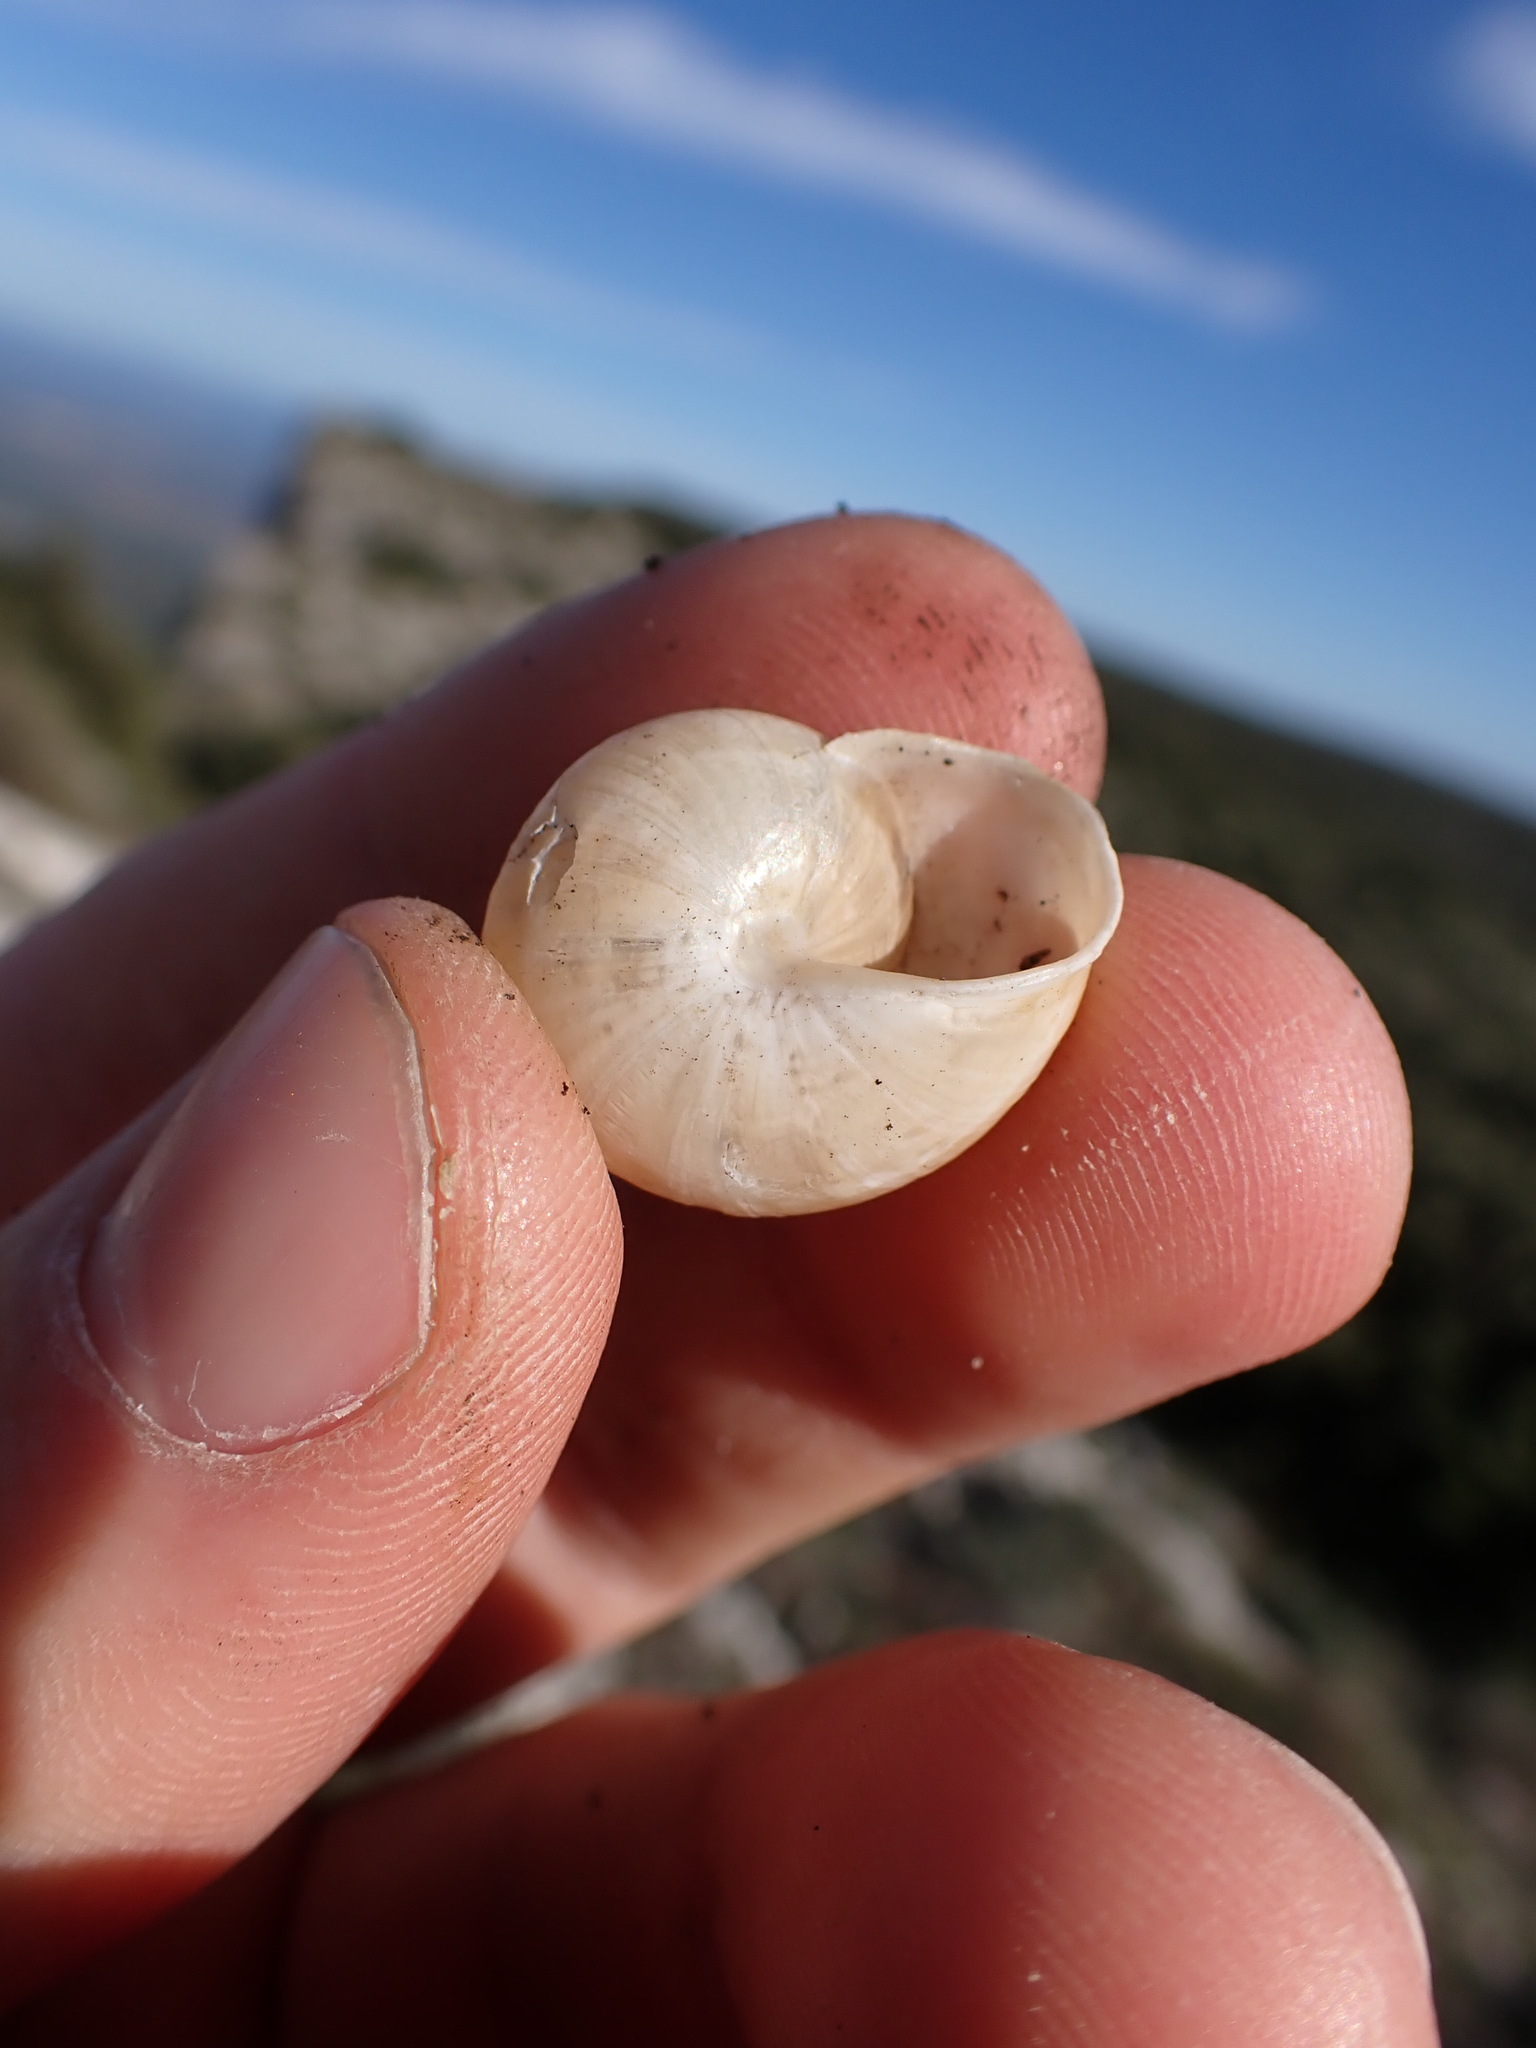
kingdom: Animalia
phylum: Mollusca
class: Gastropoda
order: Stylommatophora
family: Helicidae
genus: Pseudotachea
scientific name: Pseudotachea splendida
